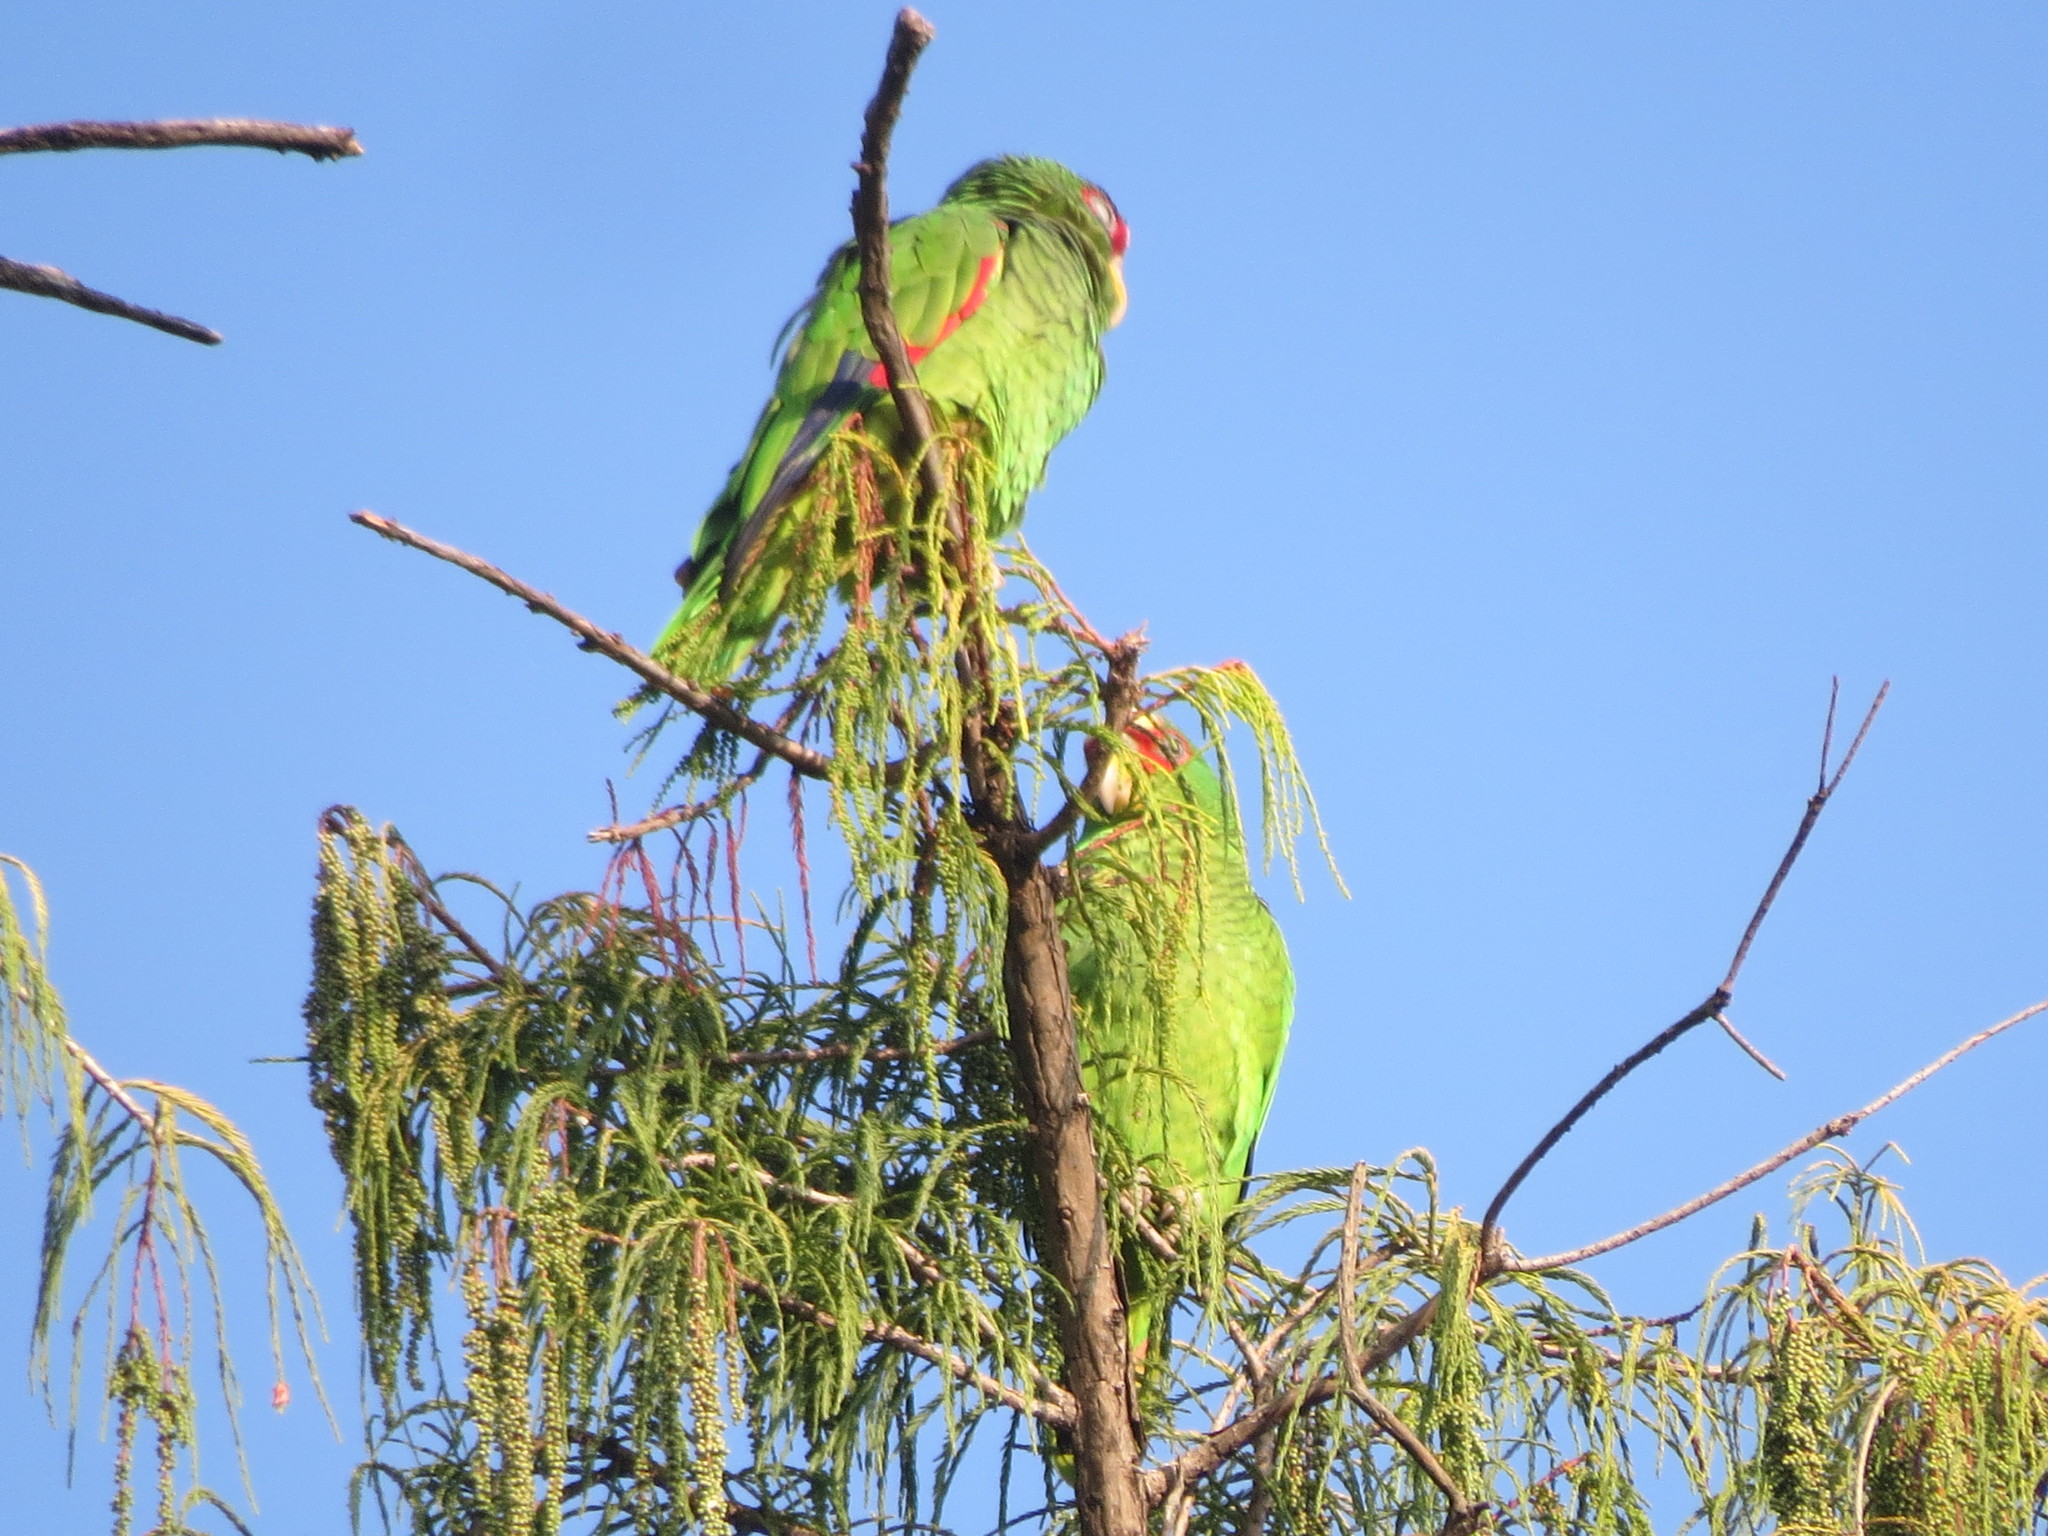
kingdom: Animalia
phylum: Chordata
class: Aves
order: Psittaciformes
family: Psittacidae
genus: Amazona
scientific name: Amazona albifrons
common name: White-fronted amazon
